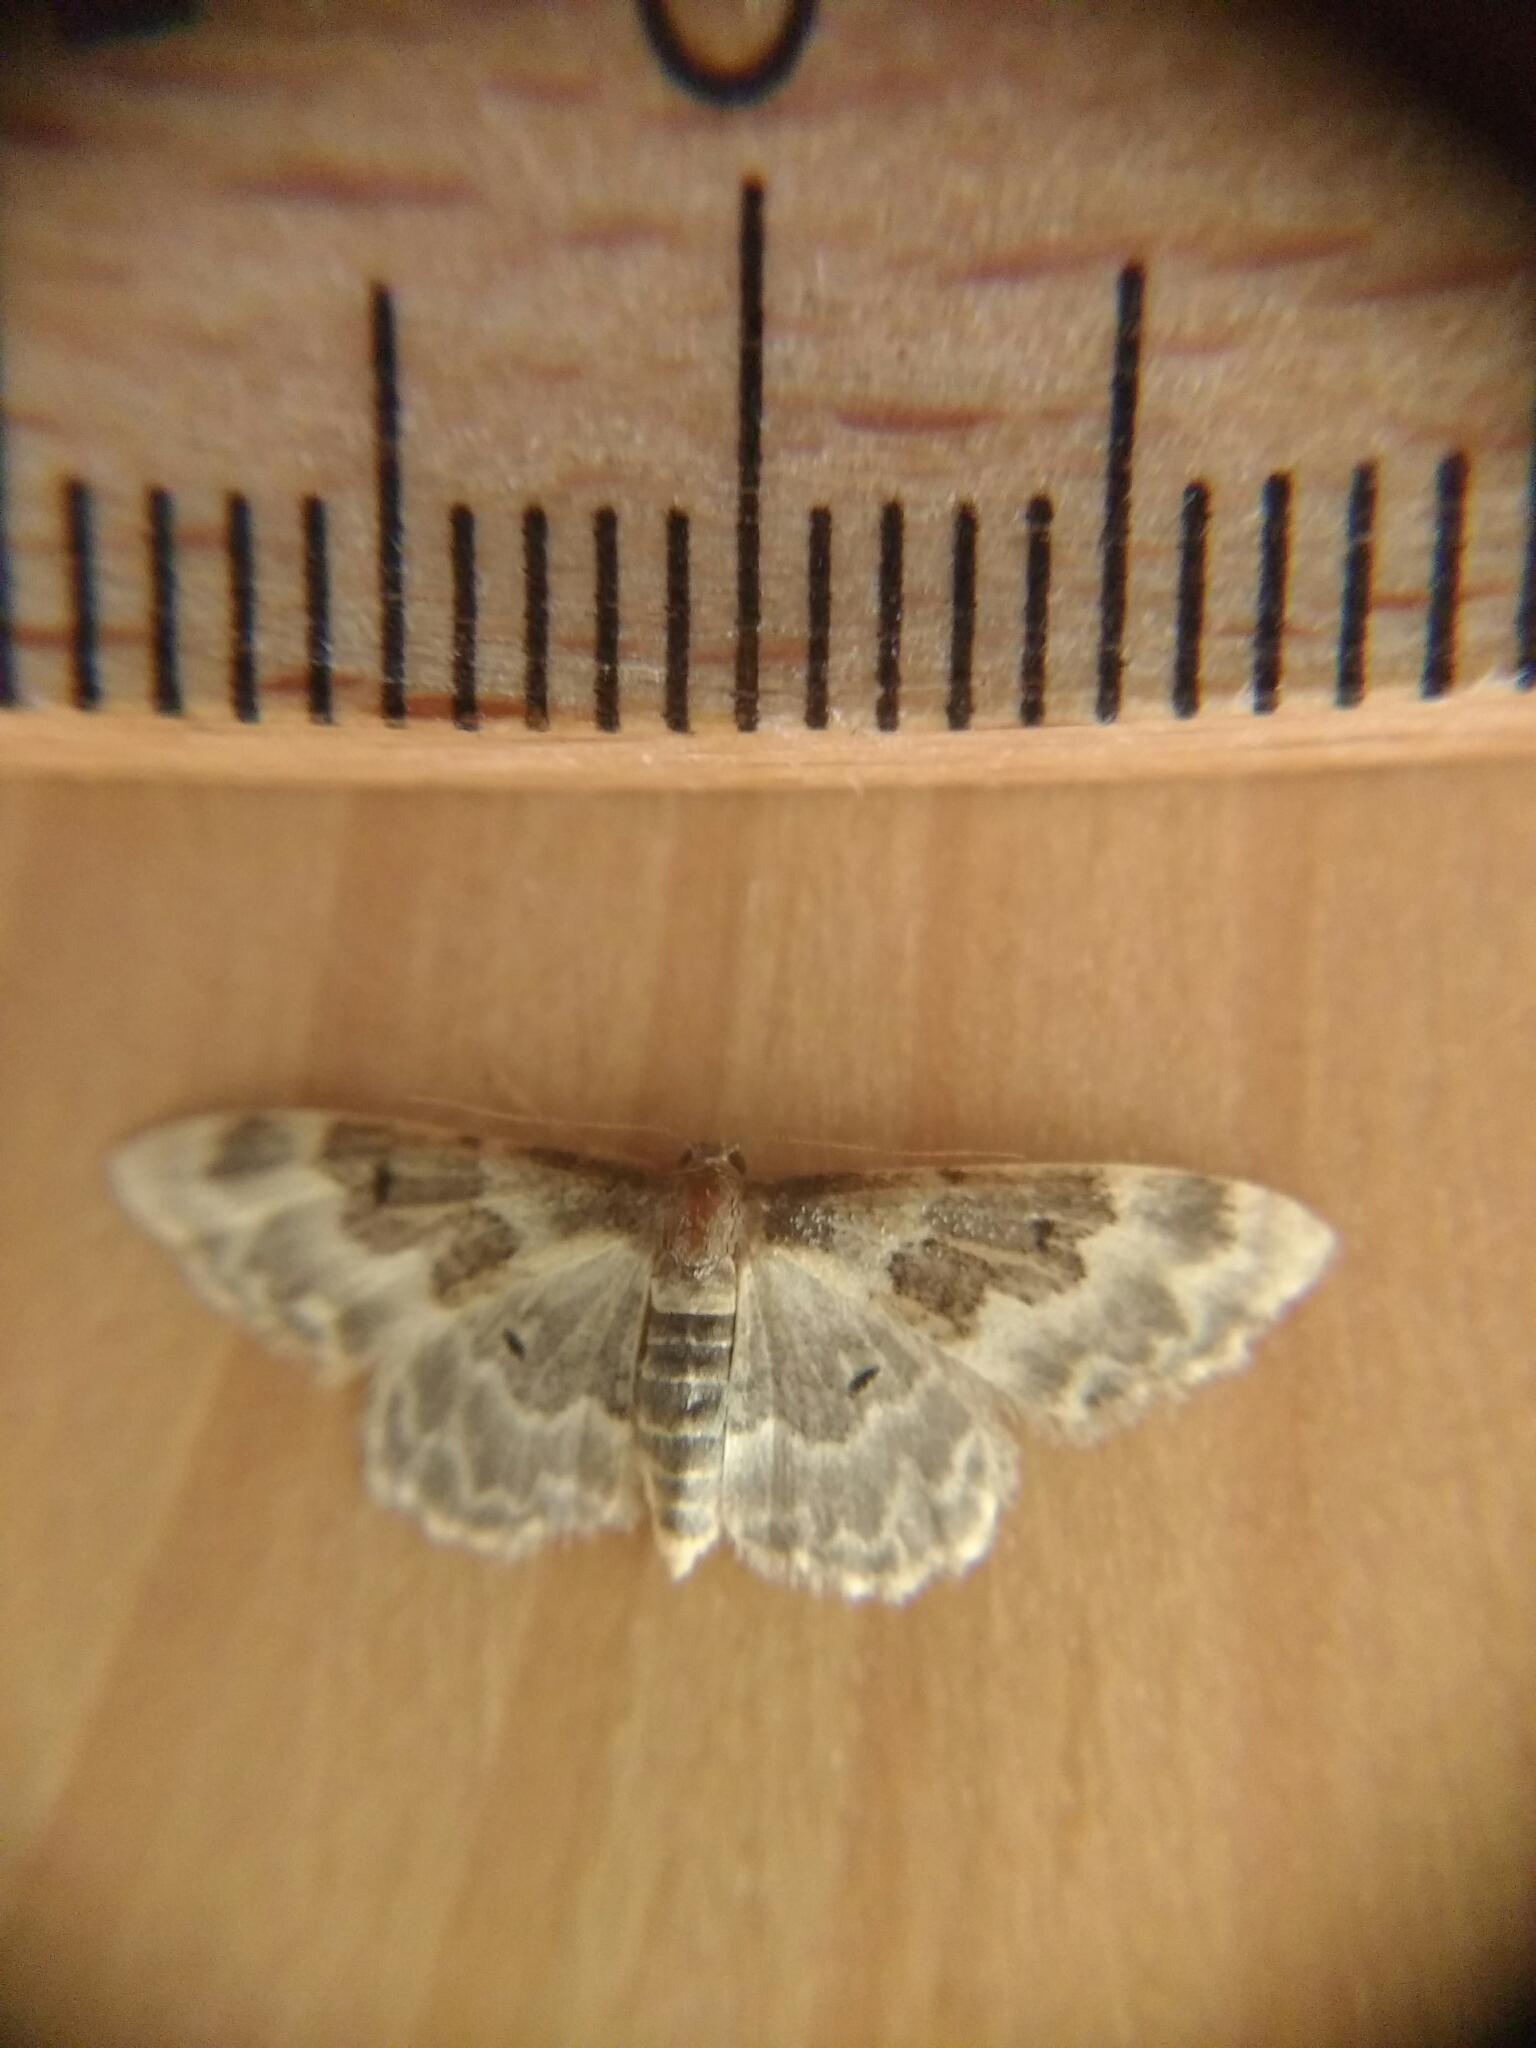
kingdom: Animalia
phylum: Arthropoda
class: Insecta
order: Lepidoptera
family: Geometridae
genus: Idaea
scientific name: Idaea rusticata
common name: Least carpet
